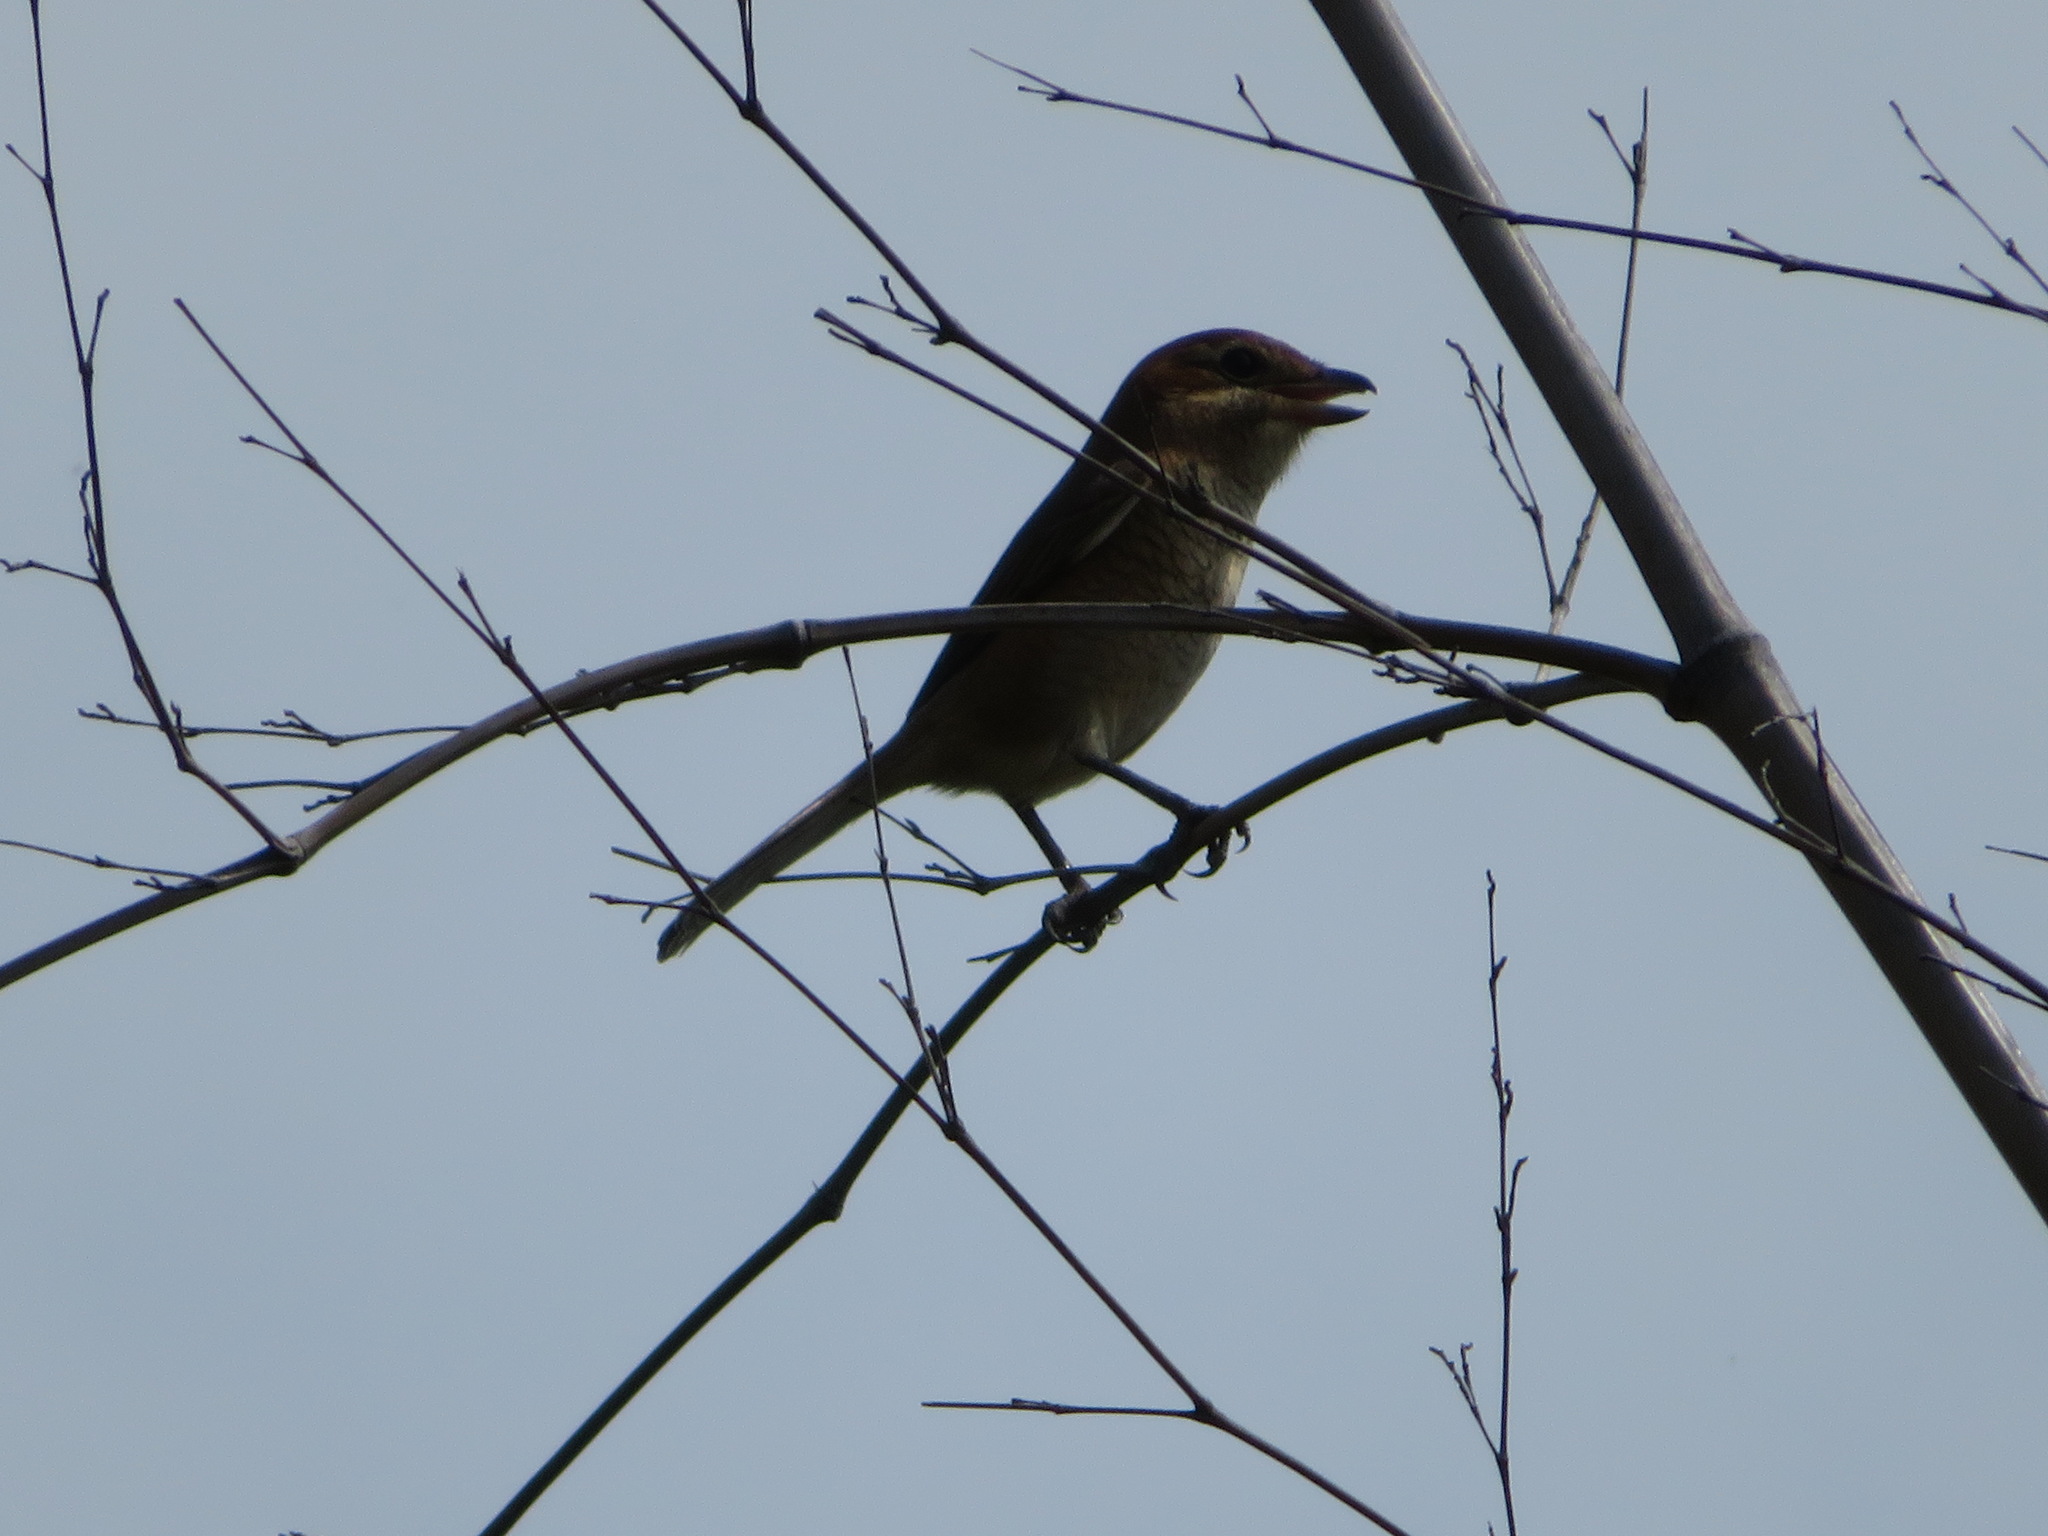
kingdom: Animalia
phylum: Chordata
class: Aves
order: Passeriformes
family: Laniidae
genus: Lanius
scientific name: Lanius bucephalus
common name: Bull-headed shrike
